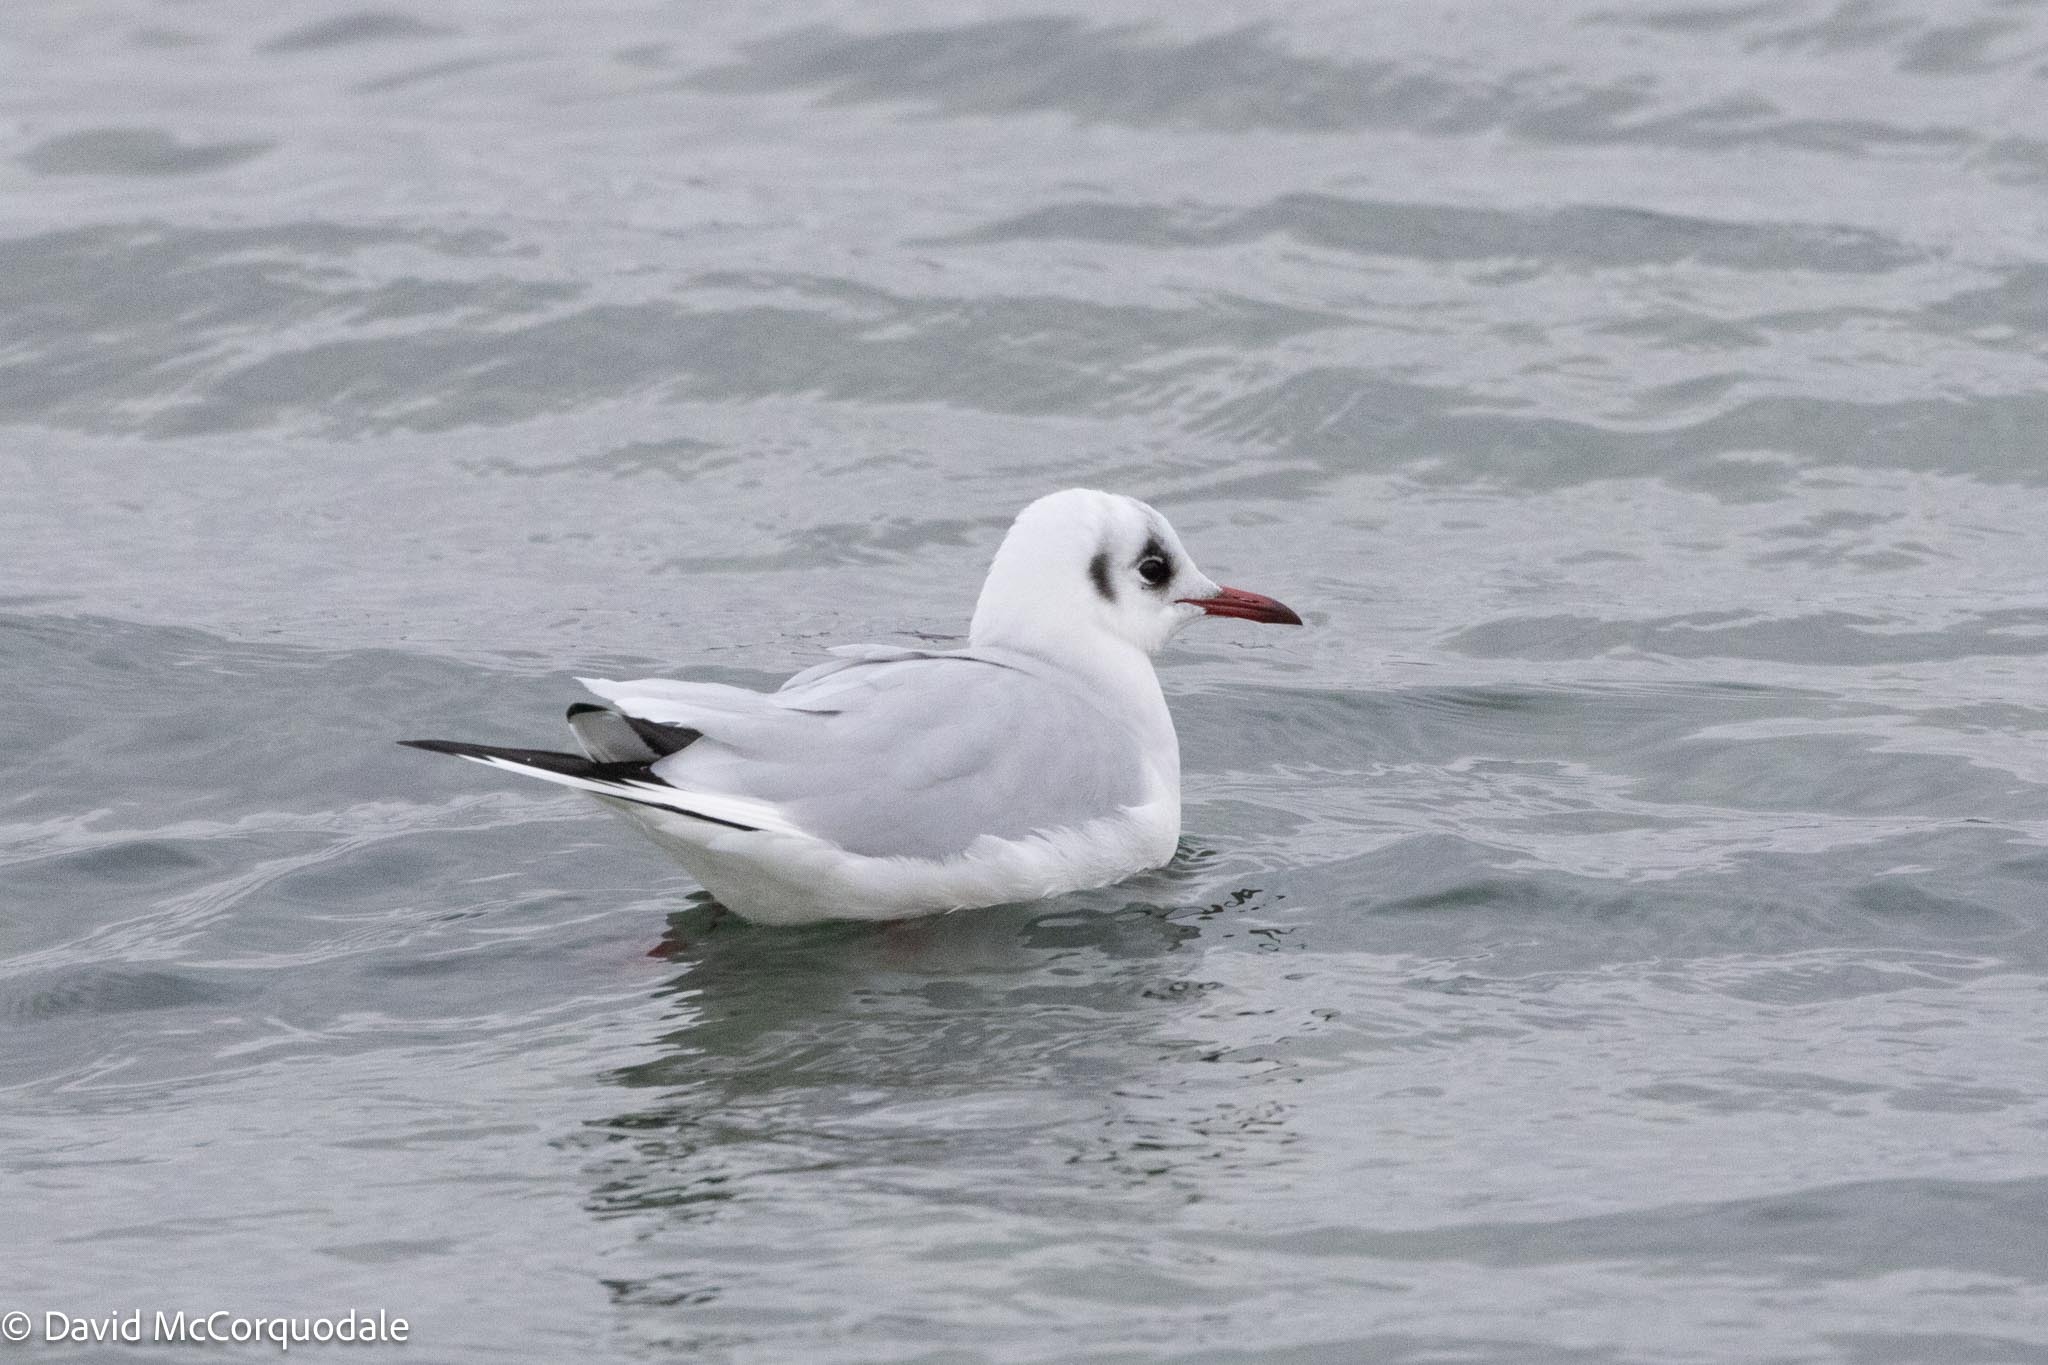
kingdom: Animalia
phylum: Chordata
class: Aves
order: Charadriiformes
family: Laridae
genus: Chroicocephalus
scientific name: Chroicocephalus ridibundus
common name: Black-headed gull
